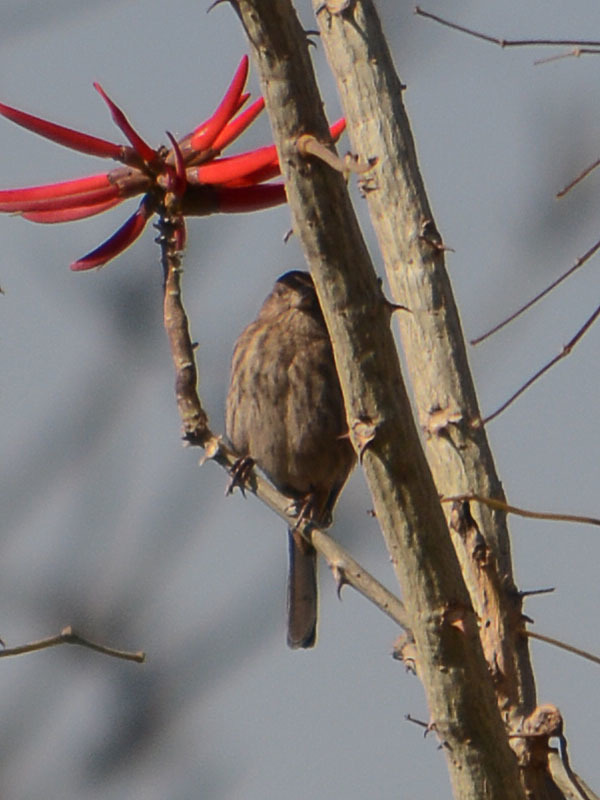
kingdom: Animalia
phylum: Chordata
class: Aves
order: Passeriformes
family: Fringillidae
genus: Haemorhous
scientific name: Haemorhous mexicanus
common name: House finch
